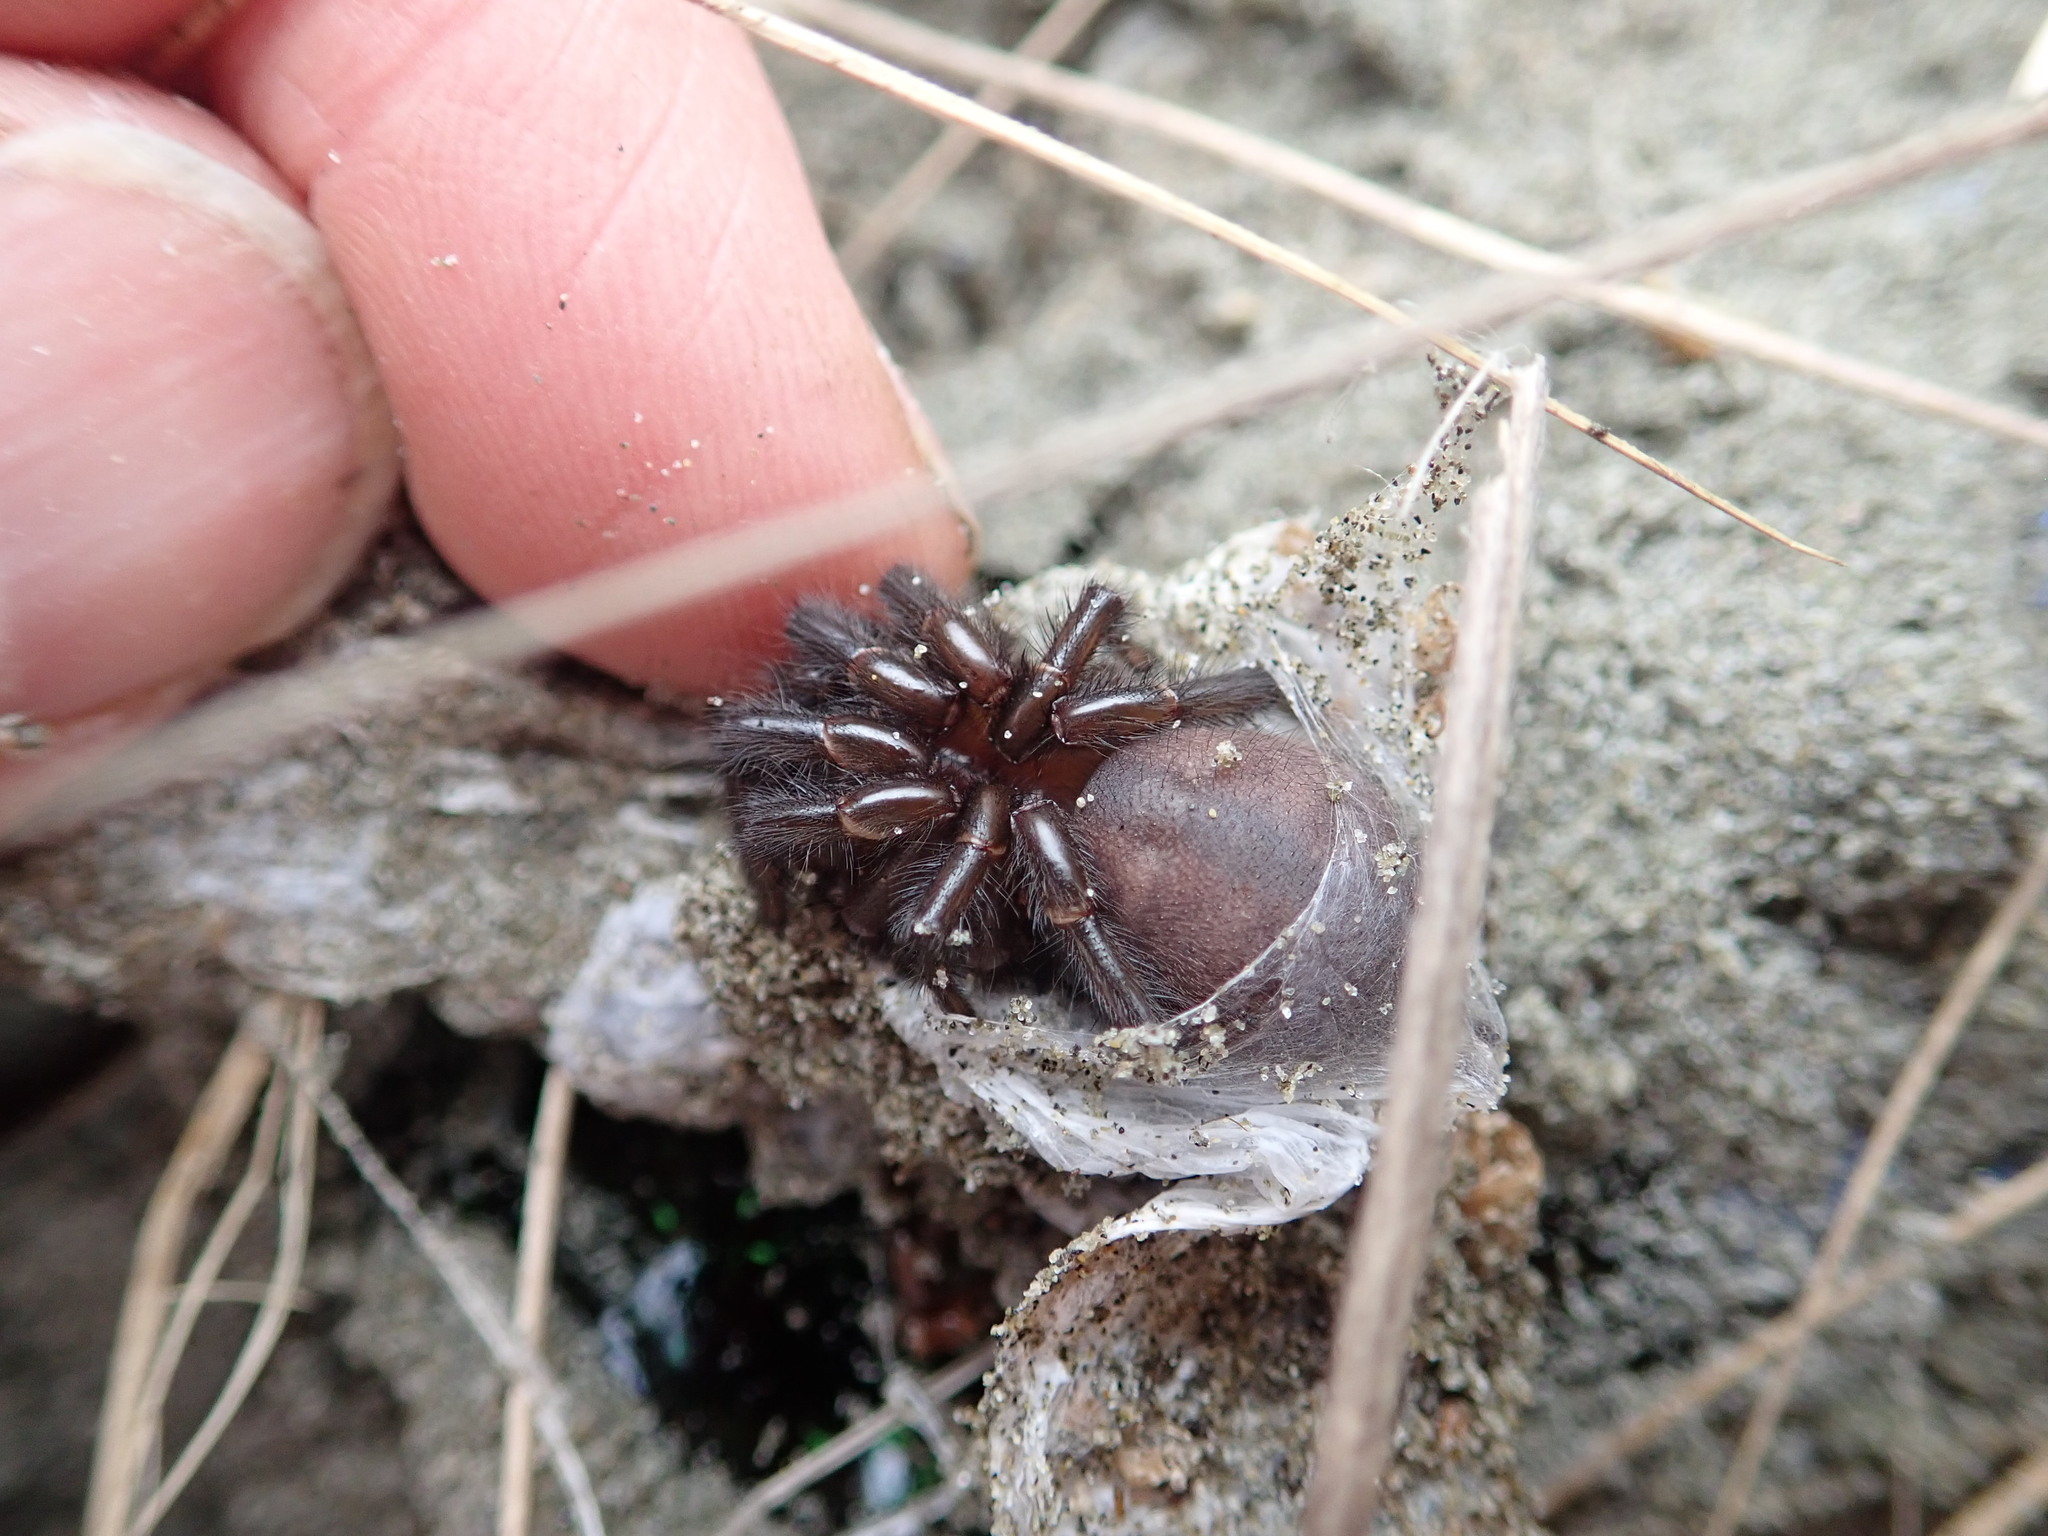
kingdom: Animalia
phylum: Arthropoda
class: Arachnida
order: Araneae
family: Porrhothelidae
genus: Porrhothele
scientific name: Porrhothele antipodiana
